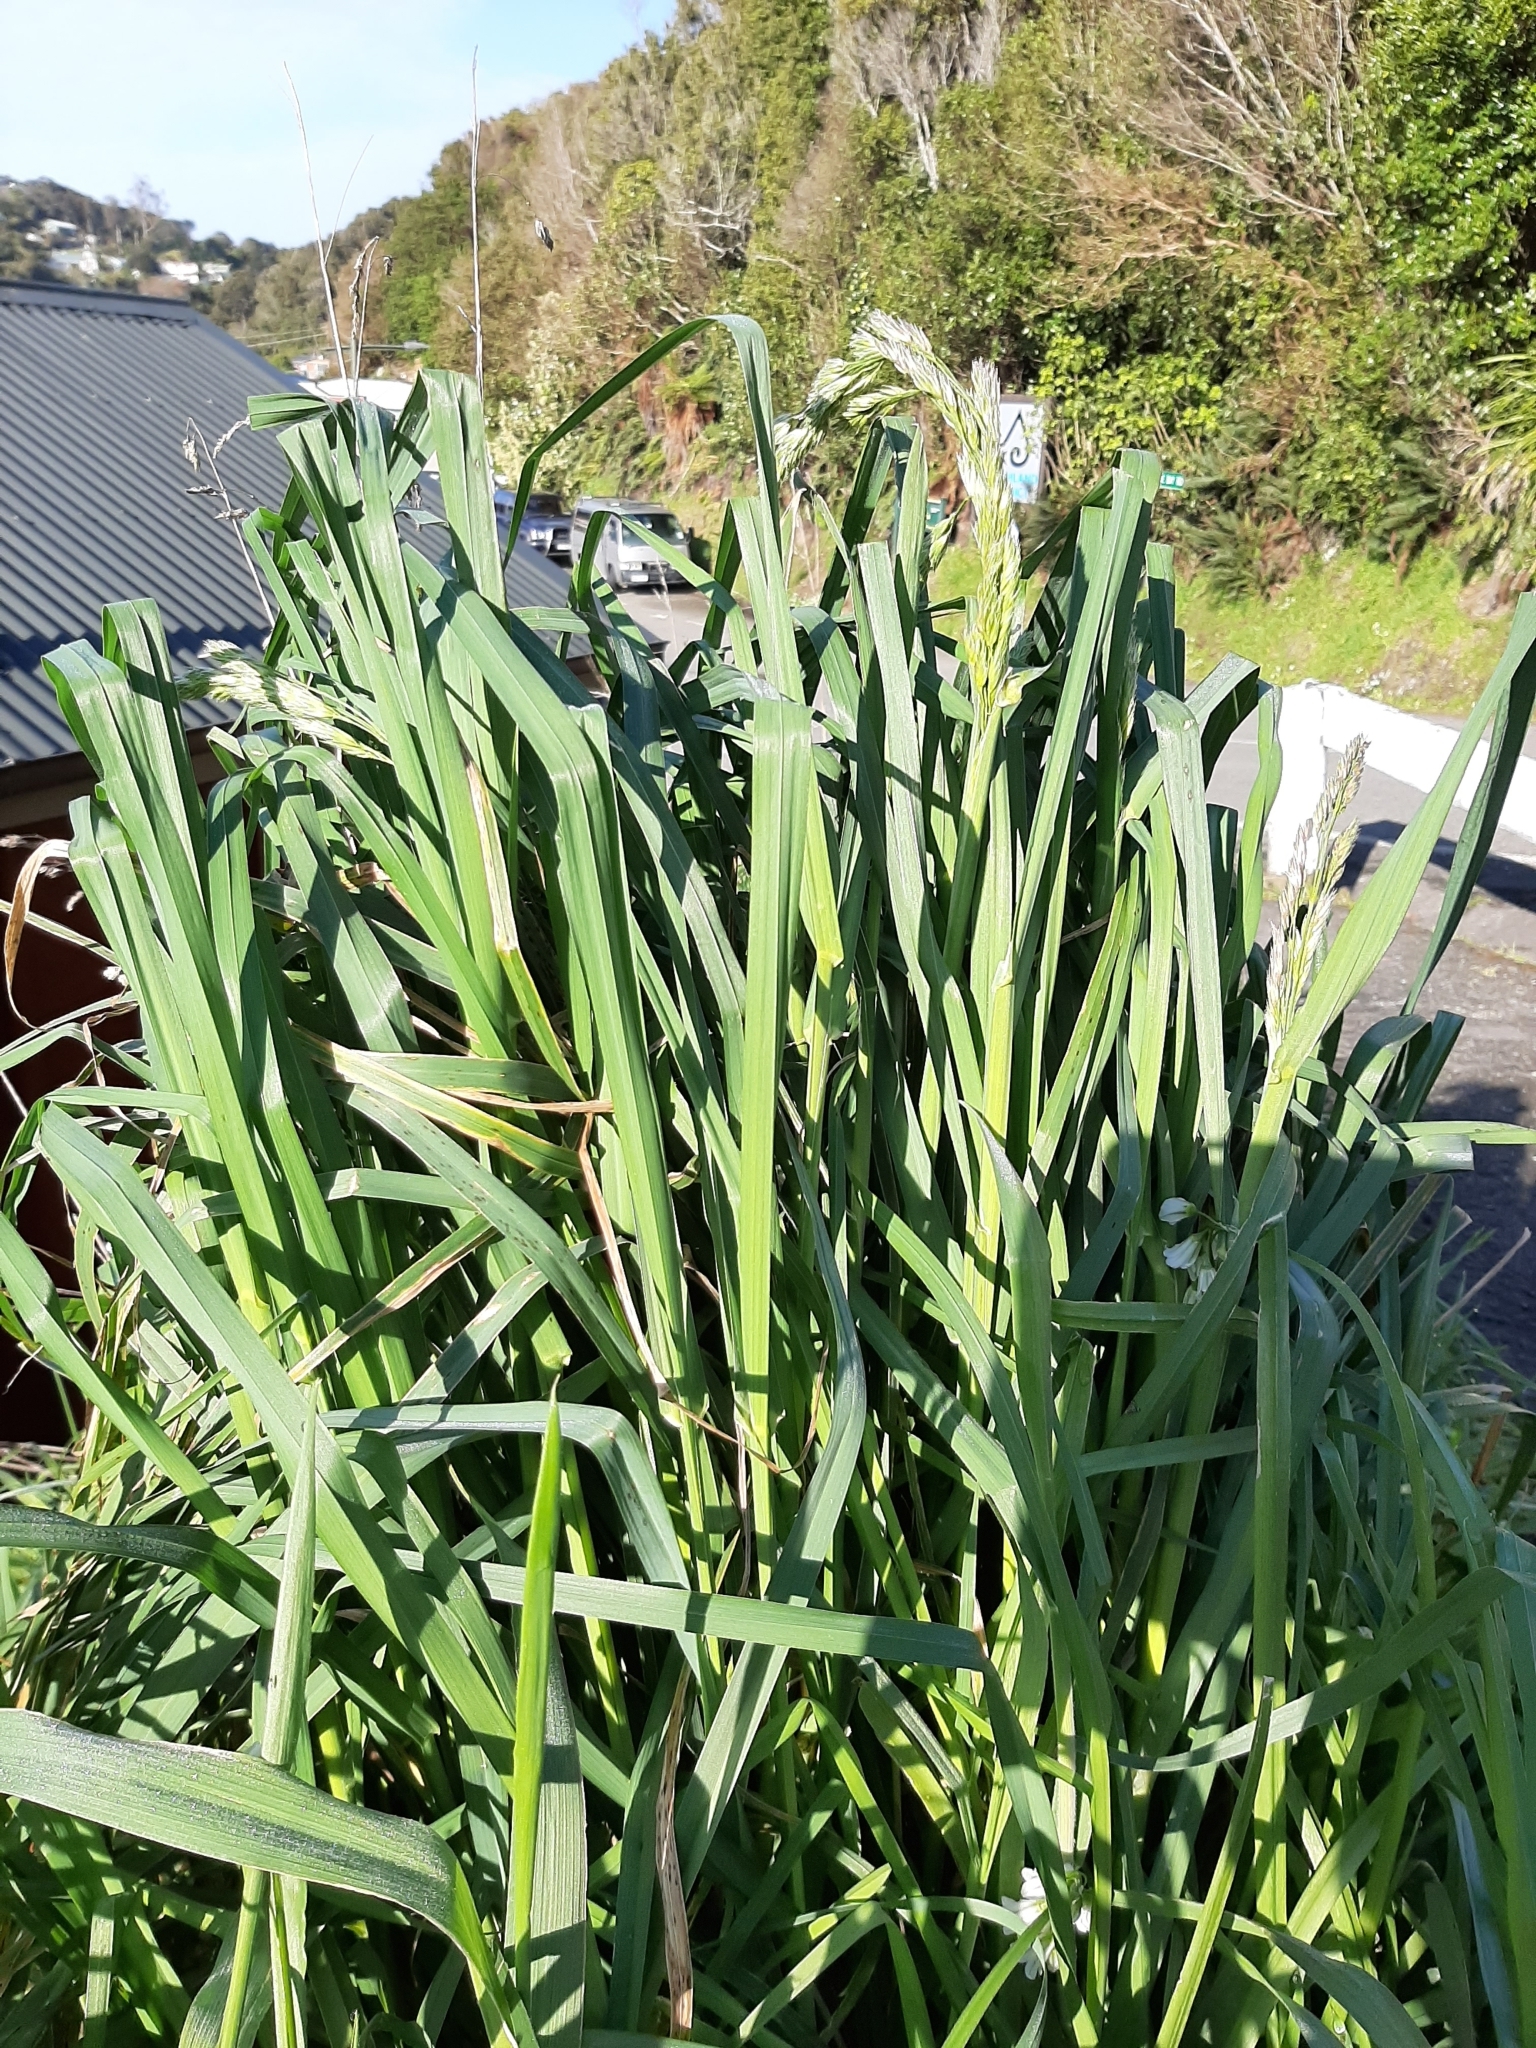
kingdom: Plantae
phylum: Tracheophyta
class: Liliopsida
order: Poales
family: Poaceae
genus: Dactylis
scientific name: Dactylis glomerata
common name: Orchardgrass
